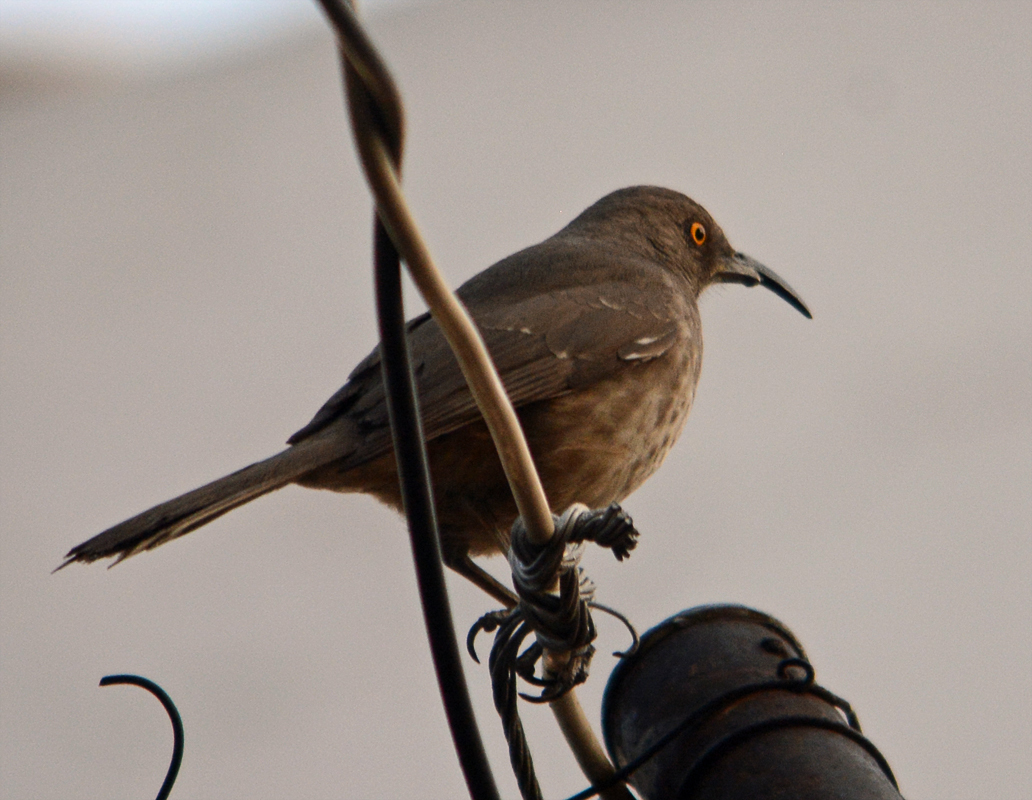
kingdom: Animalia
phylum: Chordata
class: Aves
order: Passeriformes
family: Mimidae
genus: Toxostoma
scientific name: Toxostoma curvirostre
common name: Curve-billed thrasher
